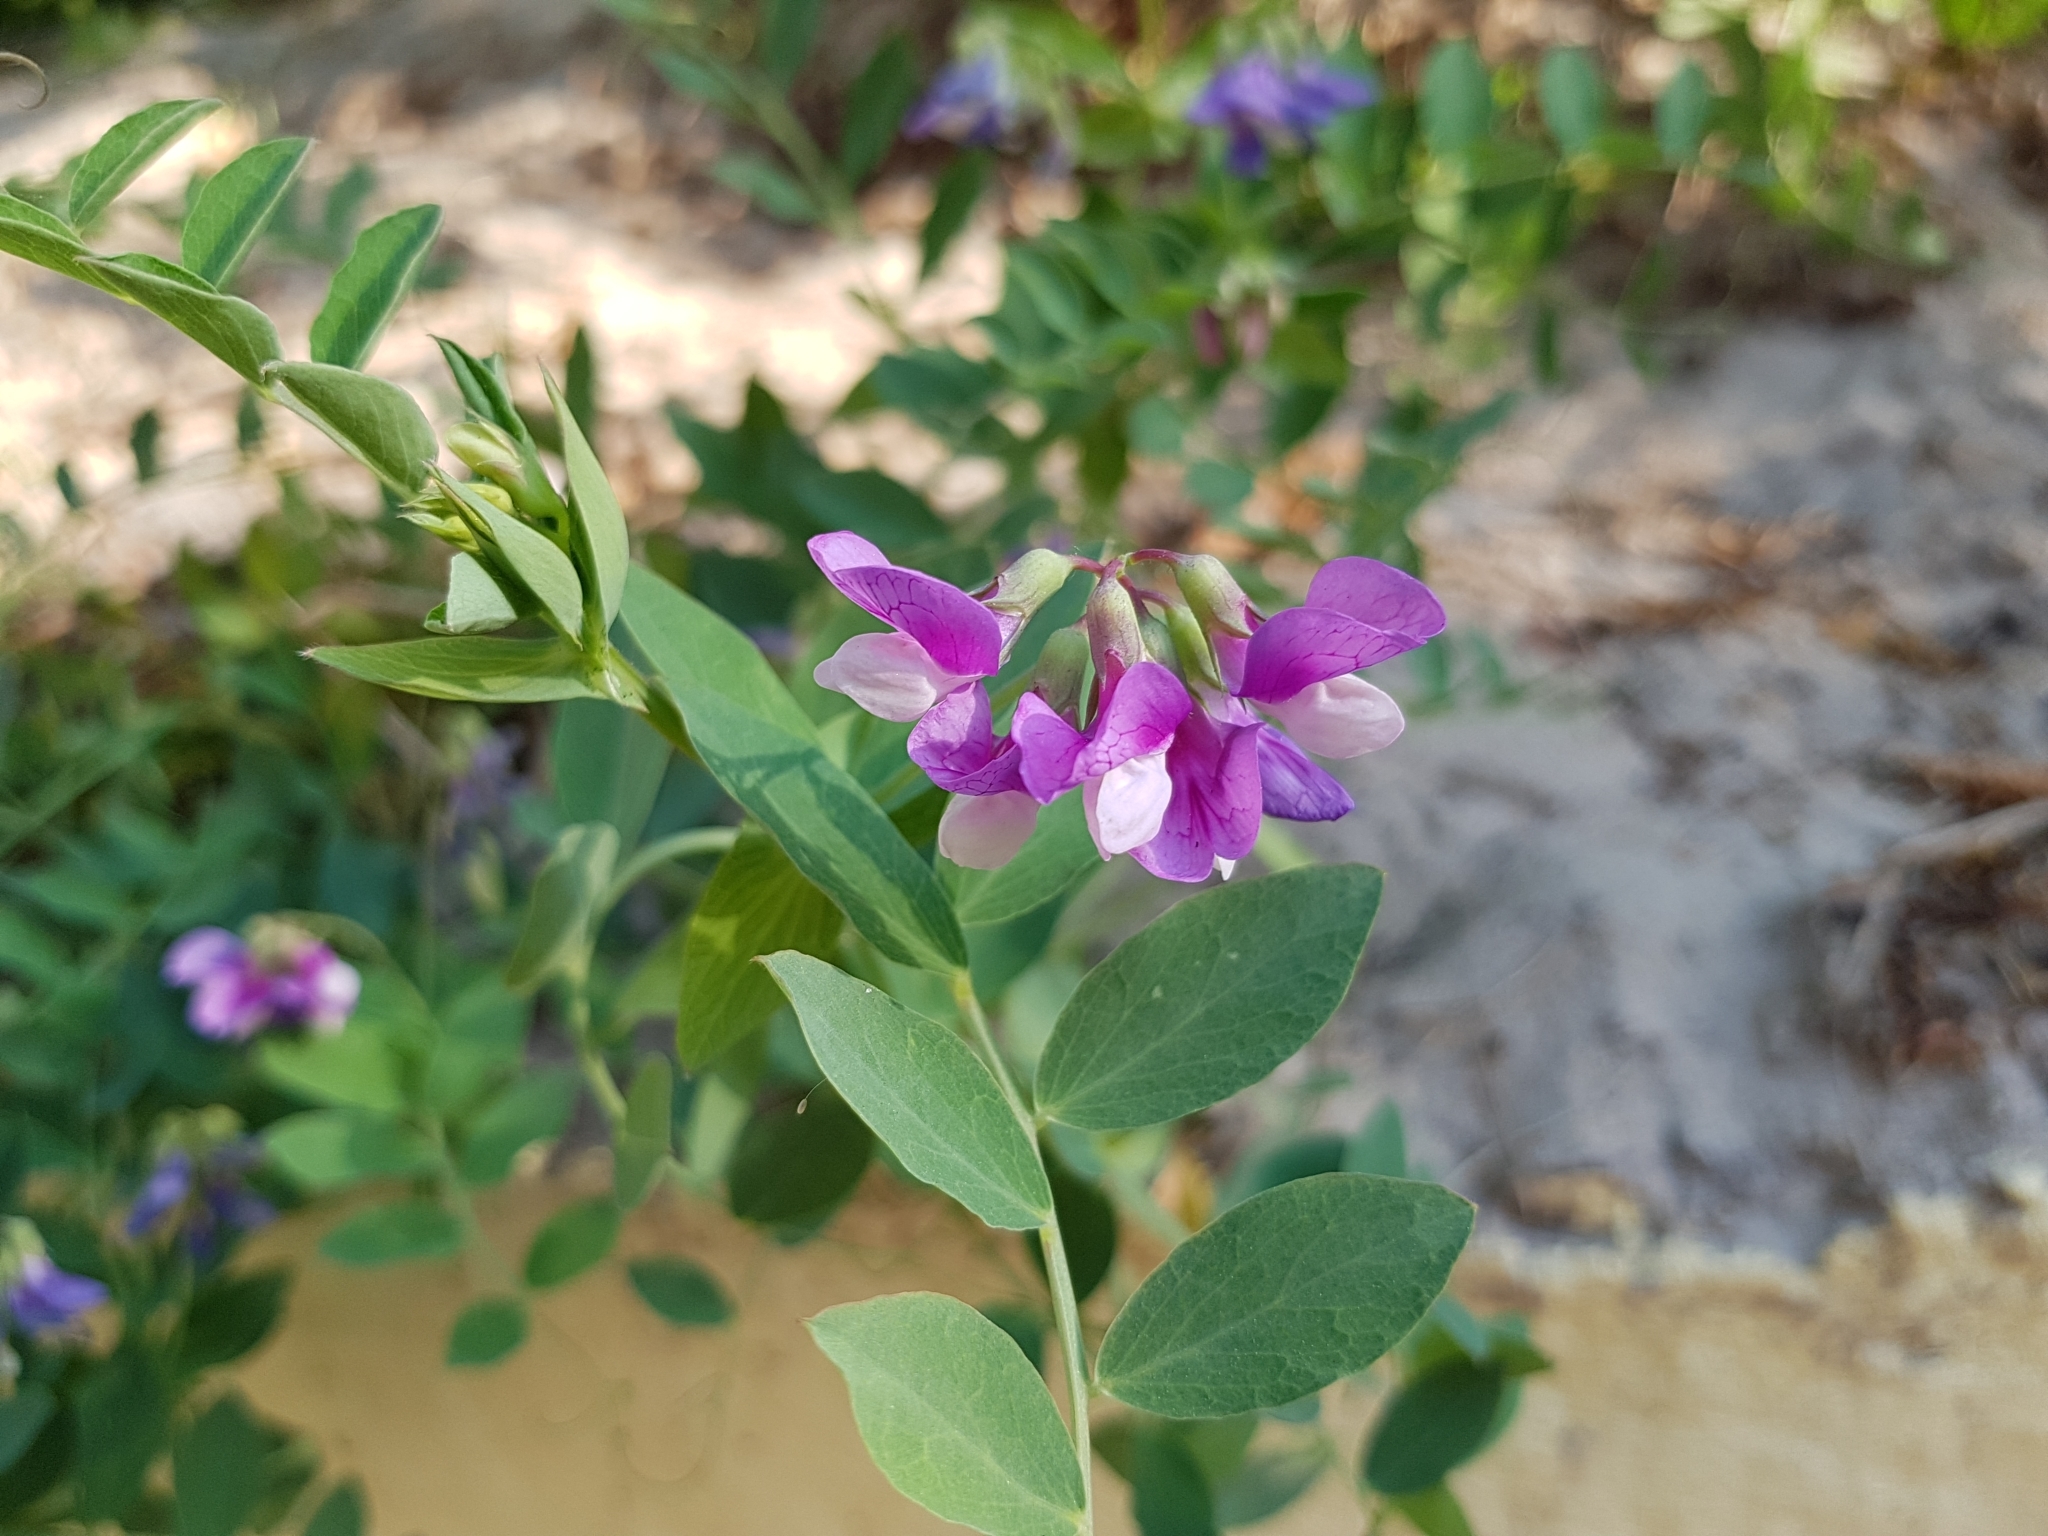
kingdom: Plantae
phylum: Tracheophyta
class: Magnoliopsida
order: Fabales
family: Fabaceae
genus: Lathyrus
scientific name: Lathyrus japonicus
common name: Sea pea
